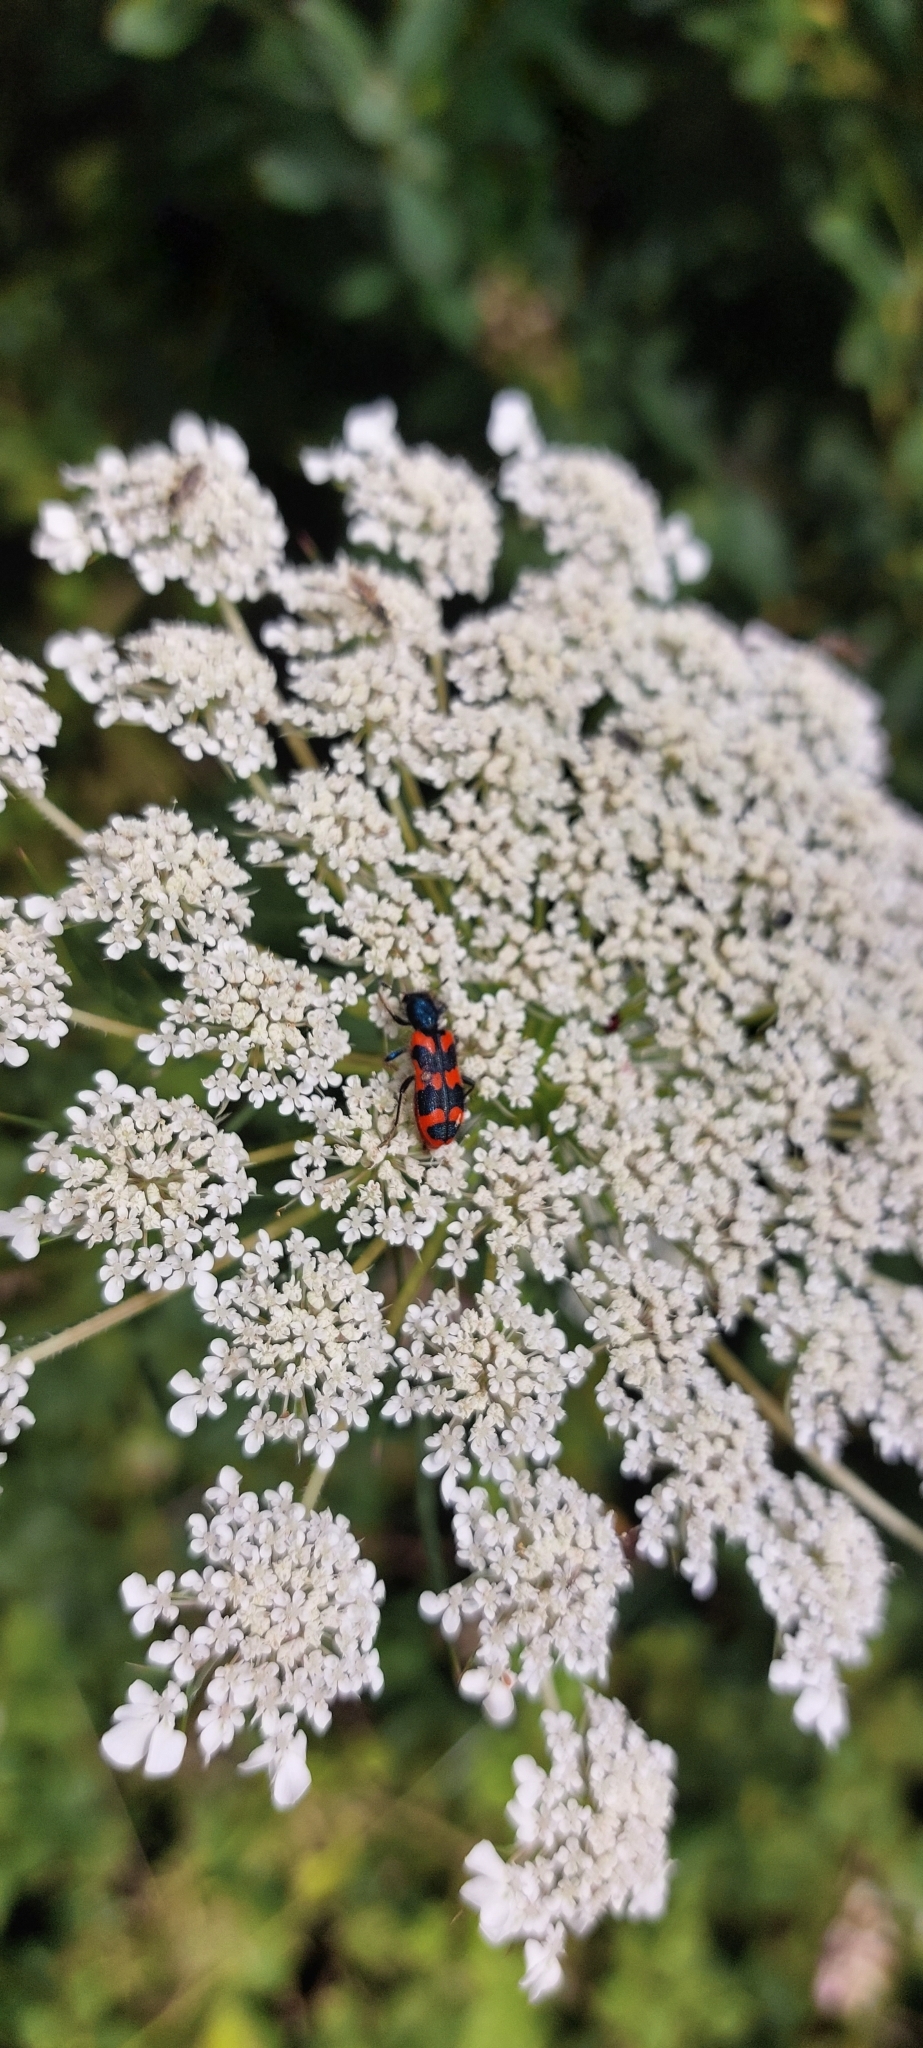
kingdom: Animalia
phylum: Arthropoda
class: Insecta
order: Coleoptera
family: Cleridae
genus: Trichodes
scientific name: Trichodes alvearius
